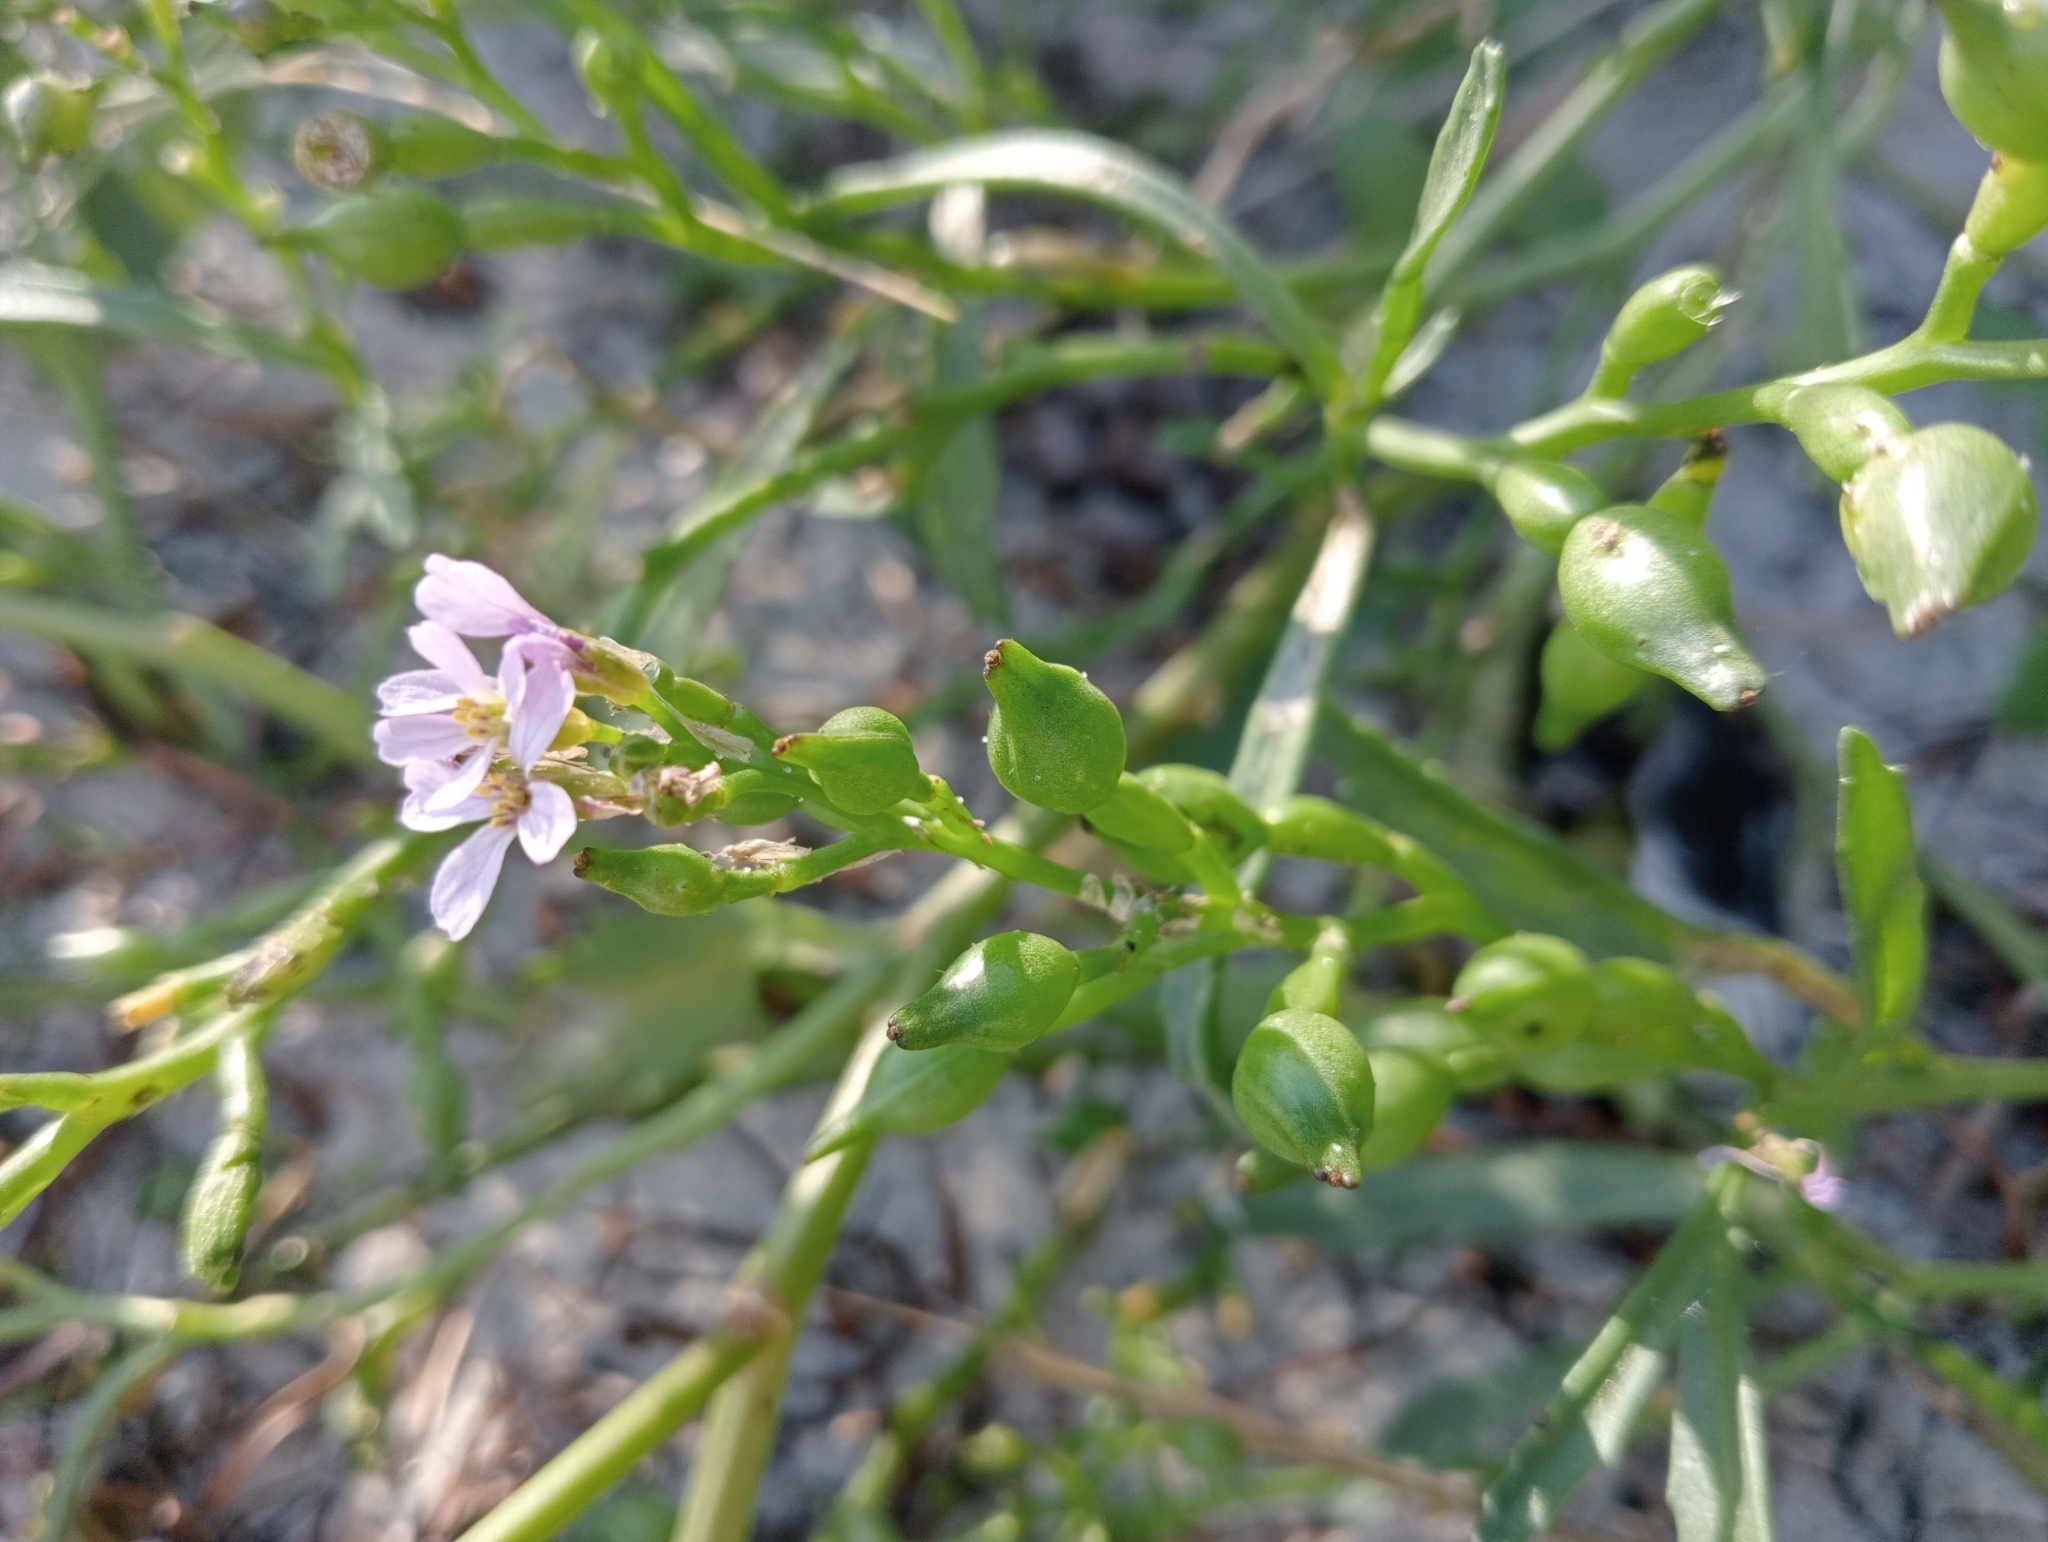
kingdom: Plantae
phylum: Tracheophyta
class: Magnoliopsida
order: Brassicales
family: Brassicaceae
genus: Cakile
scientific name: Cakile edentula
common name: American sea rocket
